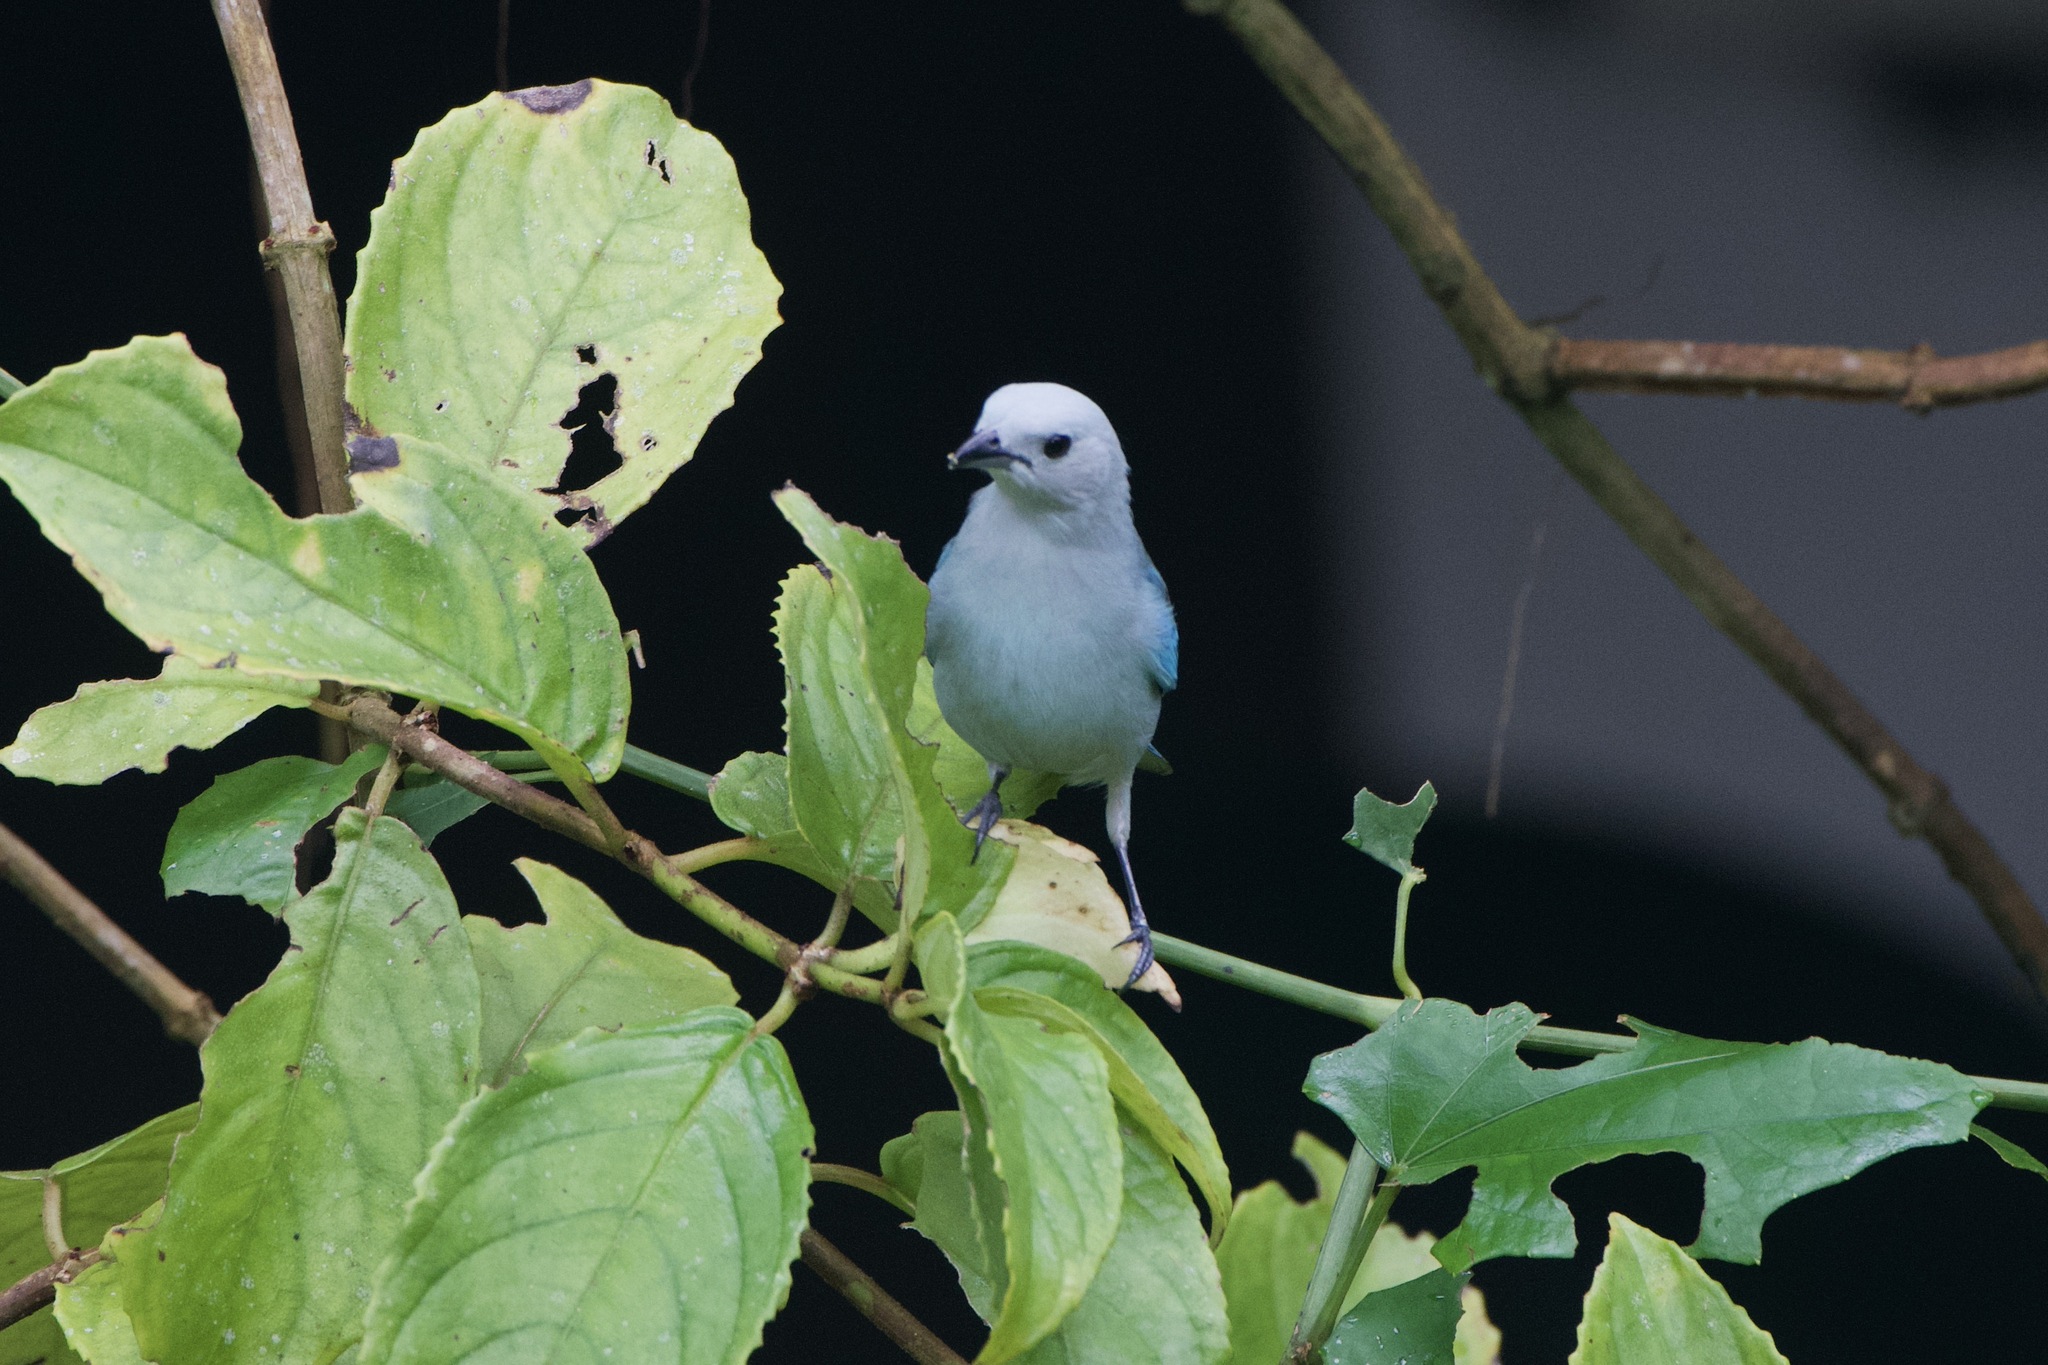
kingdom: Animalia
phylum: Chordata
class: Aves
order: Passeriformes
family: Thraupidae
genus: Thraupis
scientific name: Thraupis episcopus
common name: Blue-grey tanager
